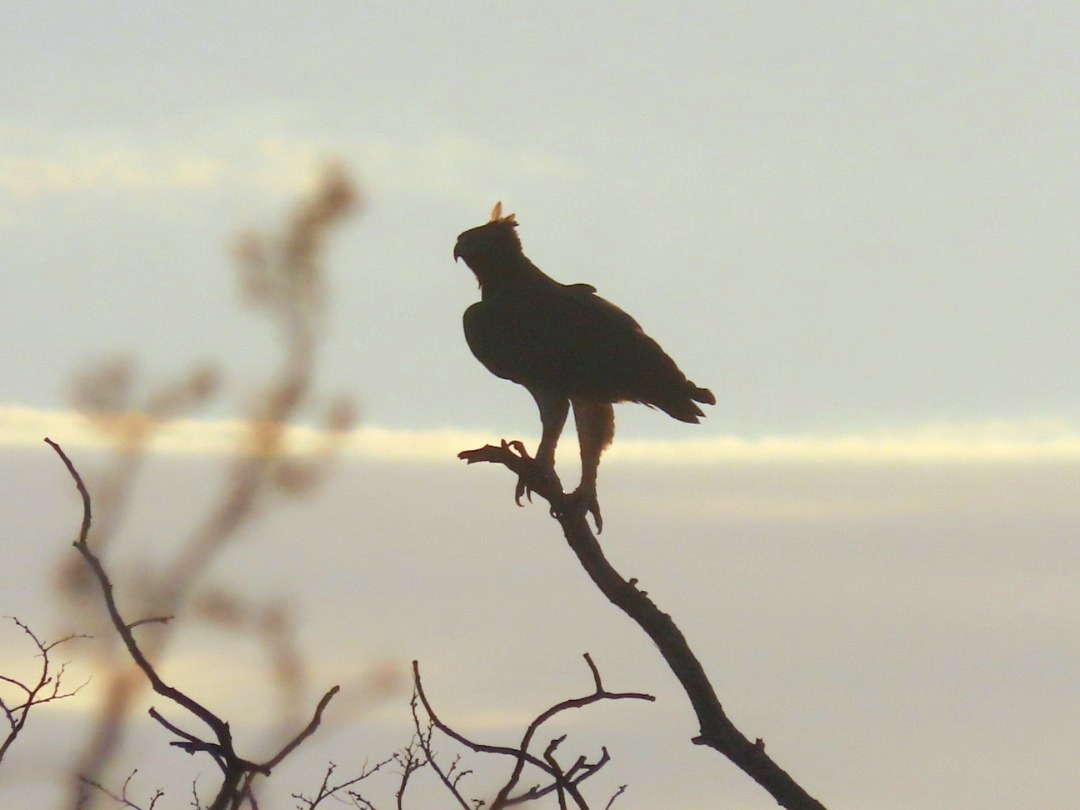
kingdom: Animalia
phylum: Chordata
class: Aves
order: Accipitriformes
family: Accipitridae
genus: Polemaetus
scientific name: Polemaetus bellicosus
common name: Martial eagle
